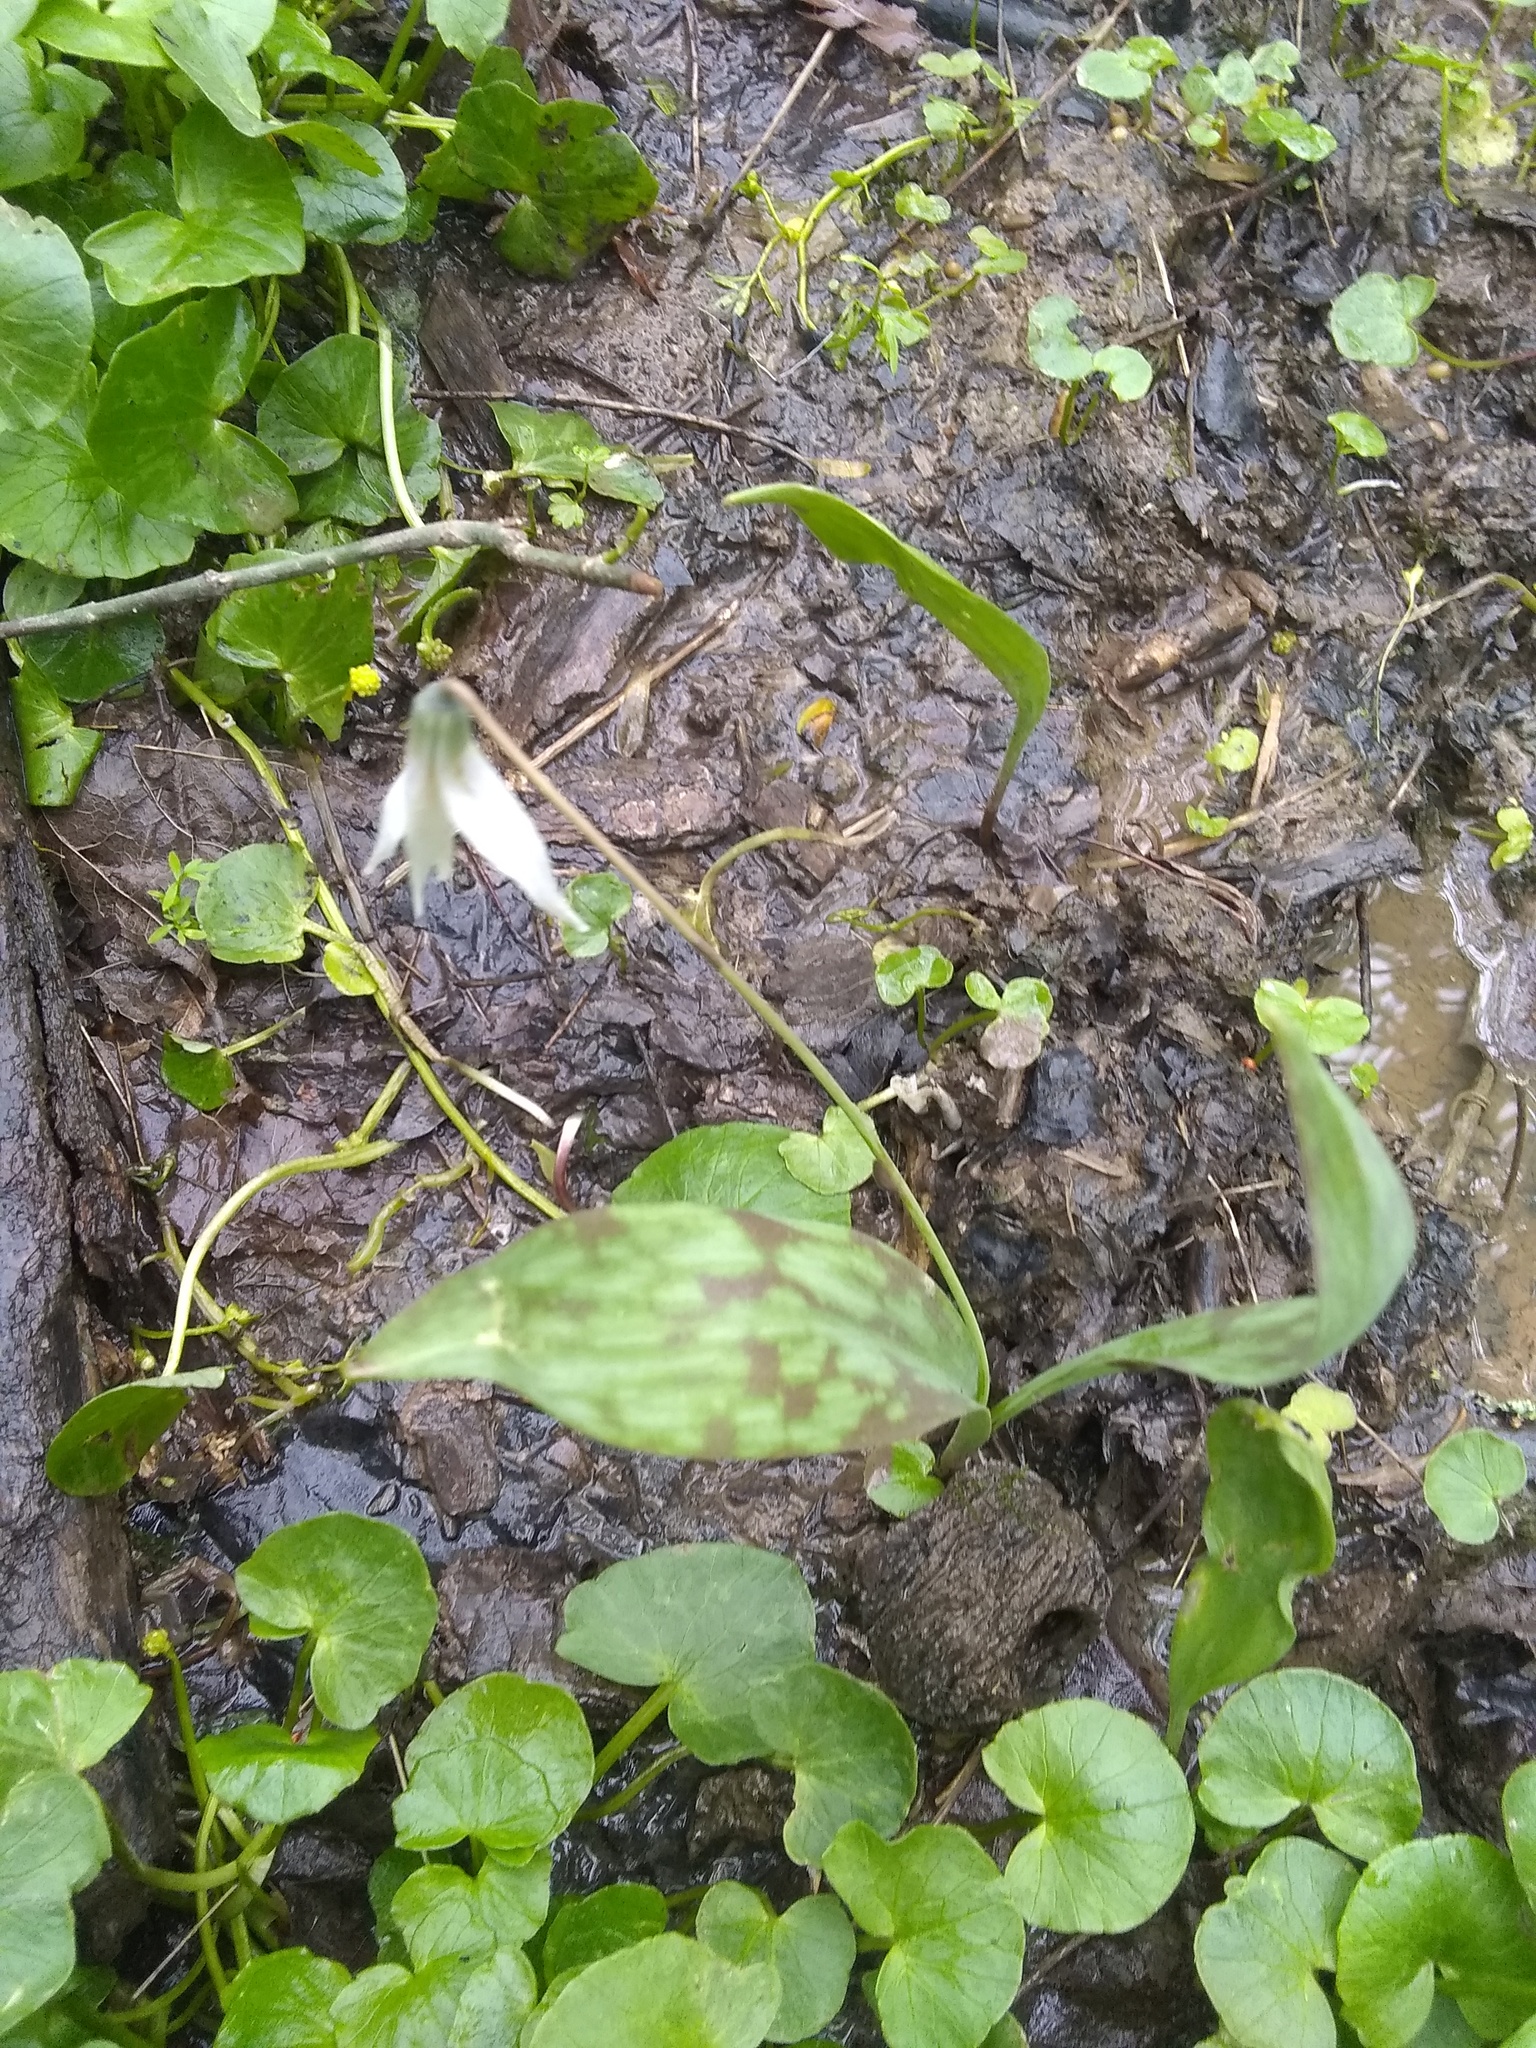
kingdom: Plantae
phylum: Tracheophyta
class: Liliopsida
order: Liliales
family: Liliaceae
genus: Erythronium
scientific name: Erythronium albidum
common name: White trout-lily
